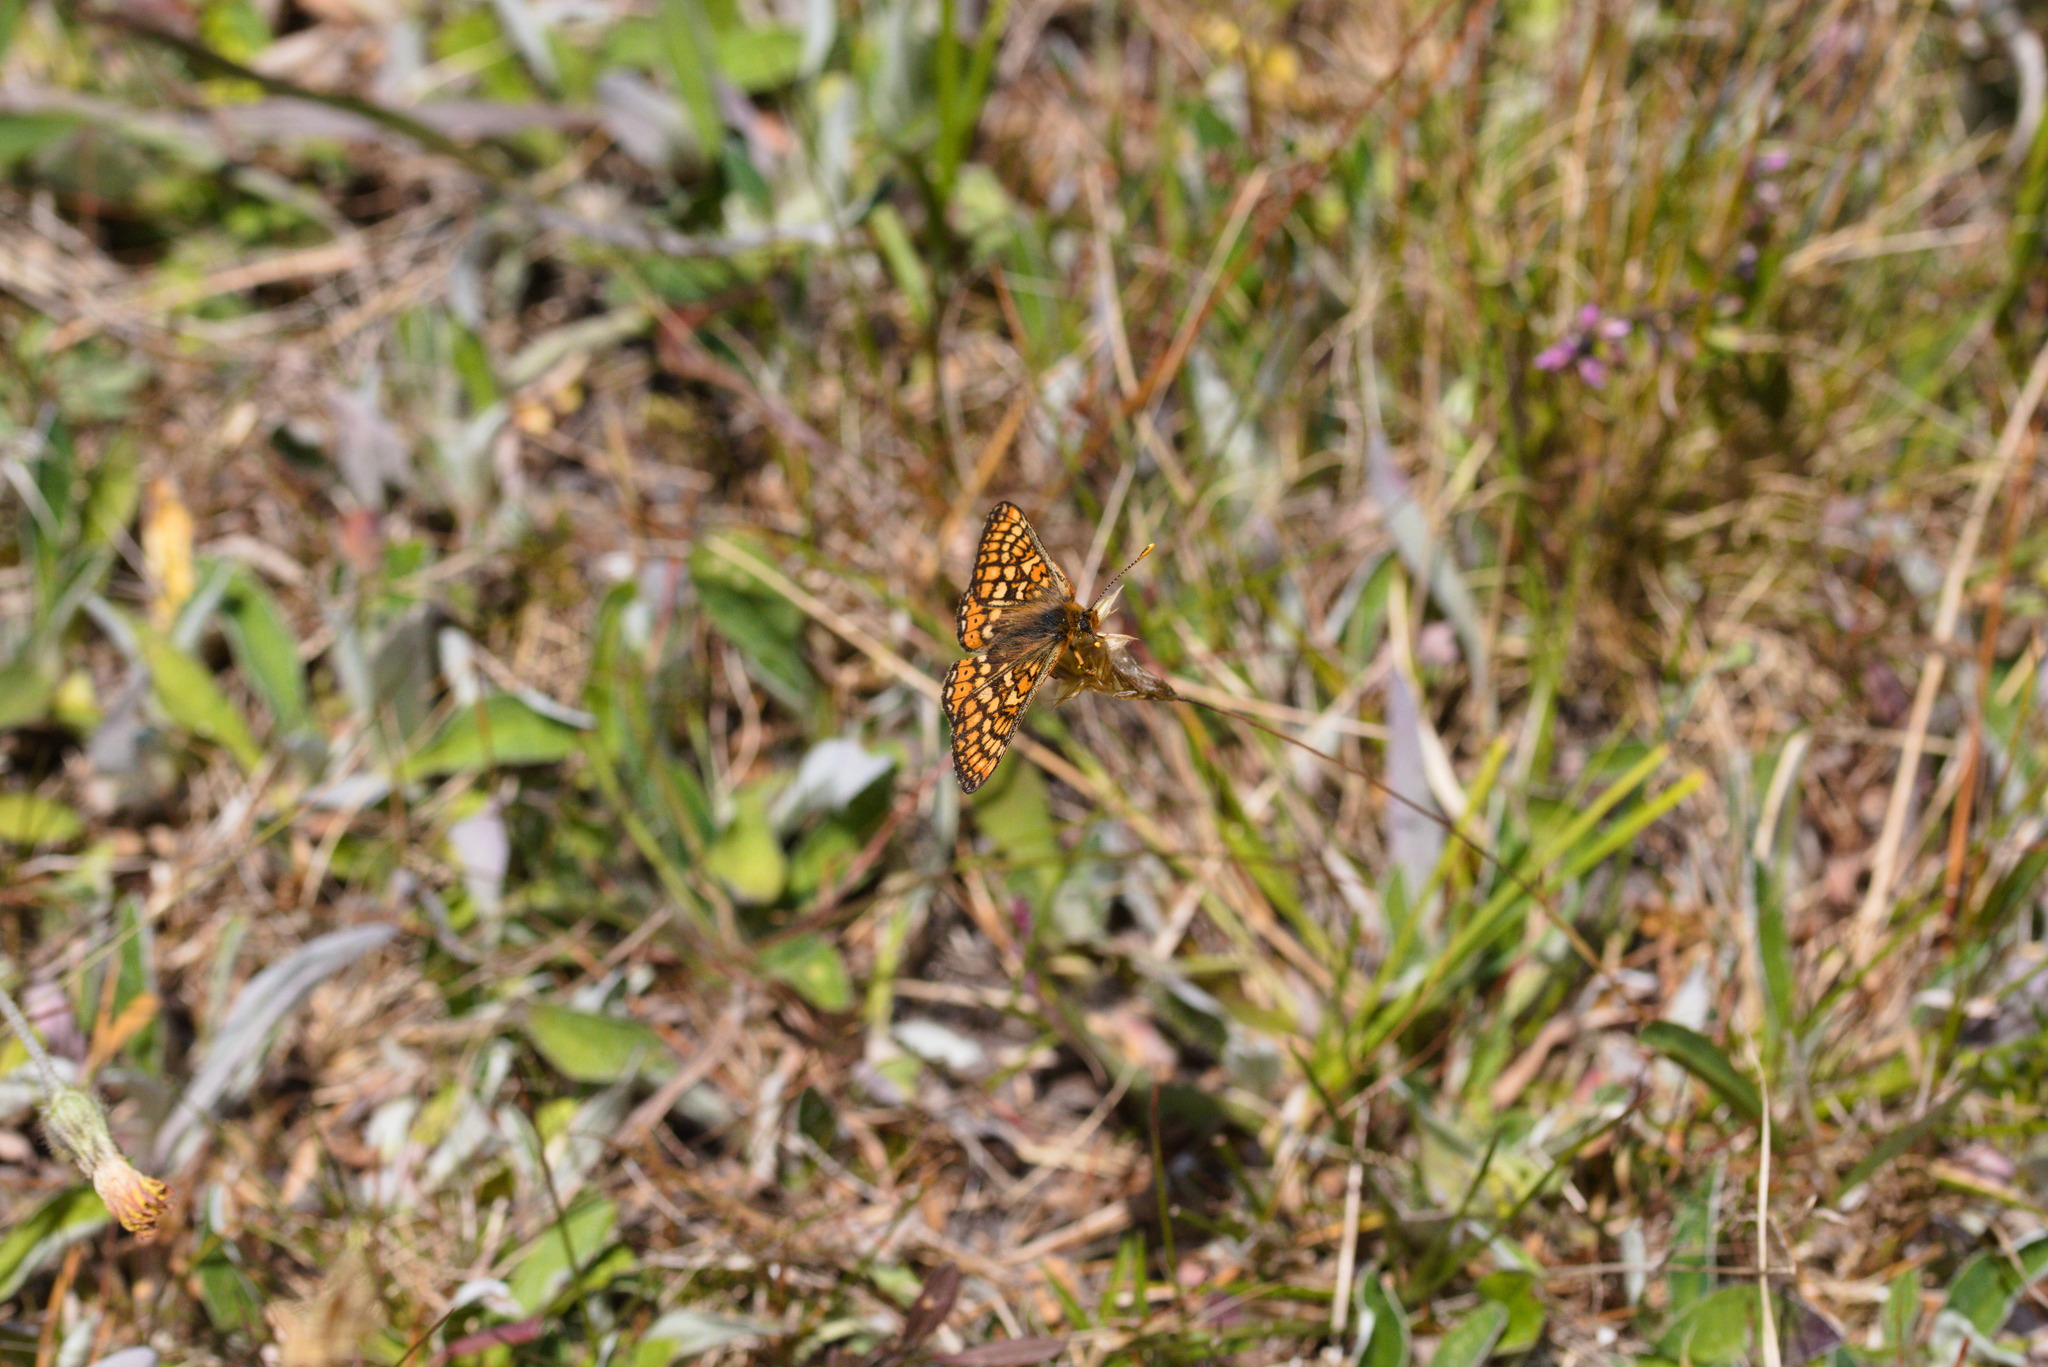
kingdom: Animalia
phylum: Arthropoda
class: Insecta
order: Lepidoptera
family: Nymphalidae
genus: Euphydryas
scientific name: Euphydryas aurinia
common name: Marsh fritillary
